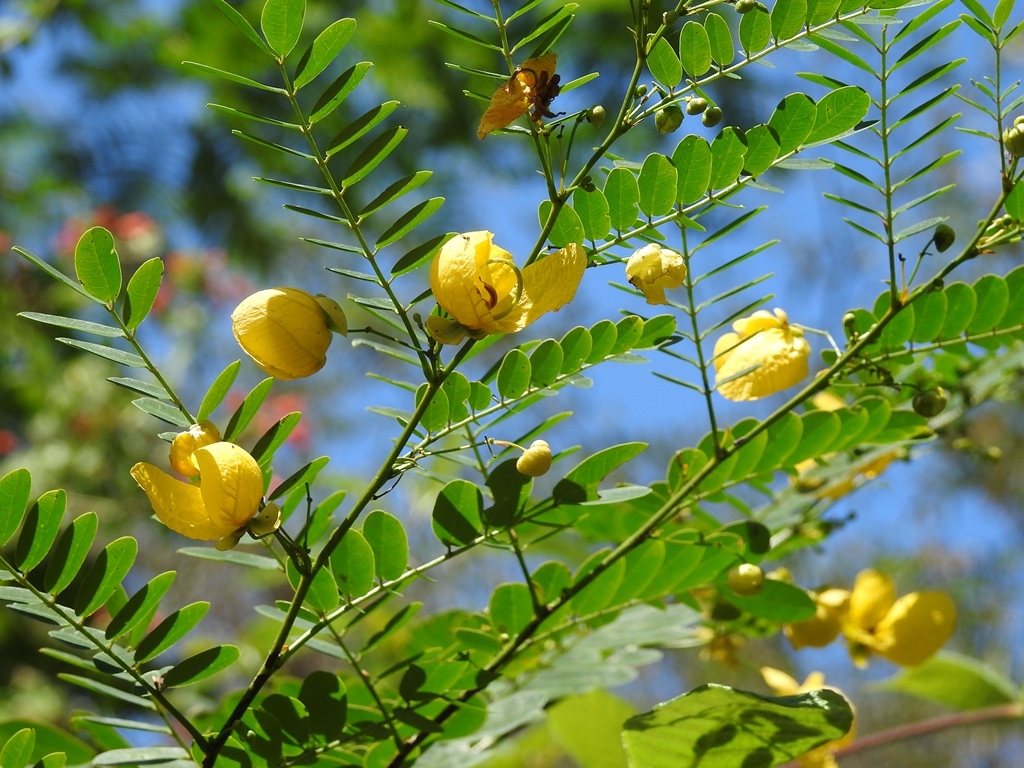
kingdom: Plantae
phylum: Tracheophyta
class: Magnoliopsida
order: Fabales
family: Fabaceae
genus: Senna
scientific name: Senna pallida
